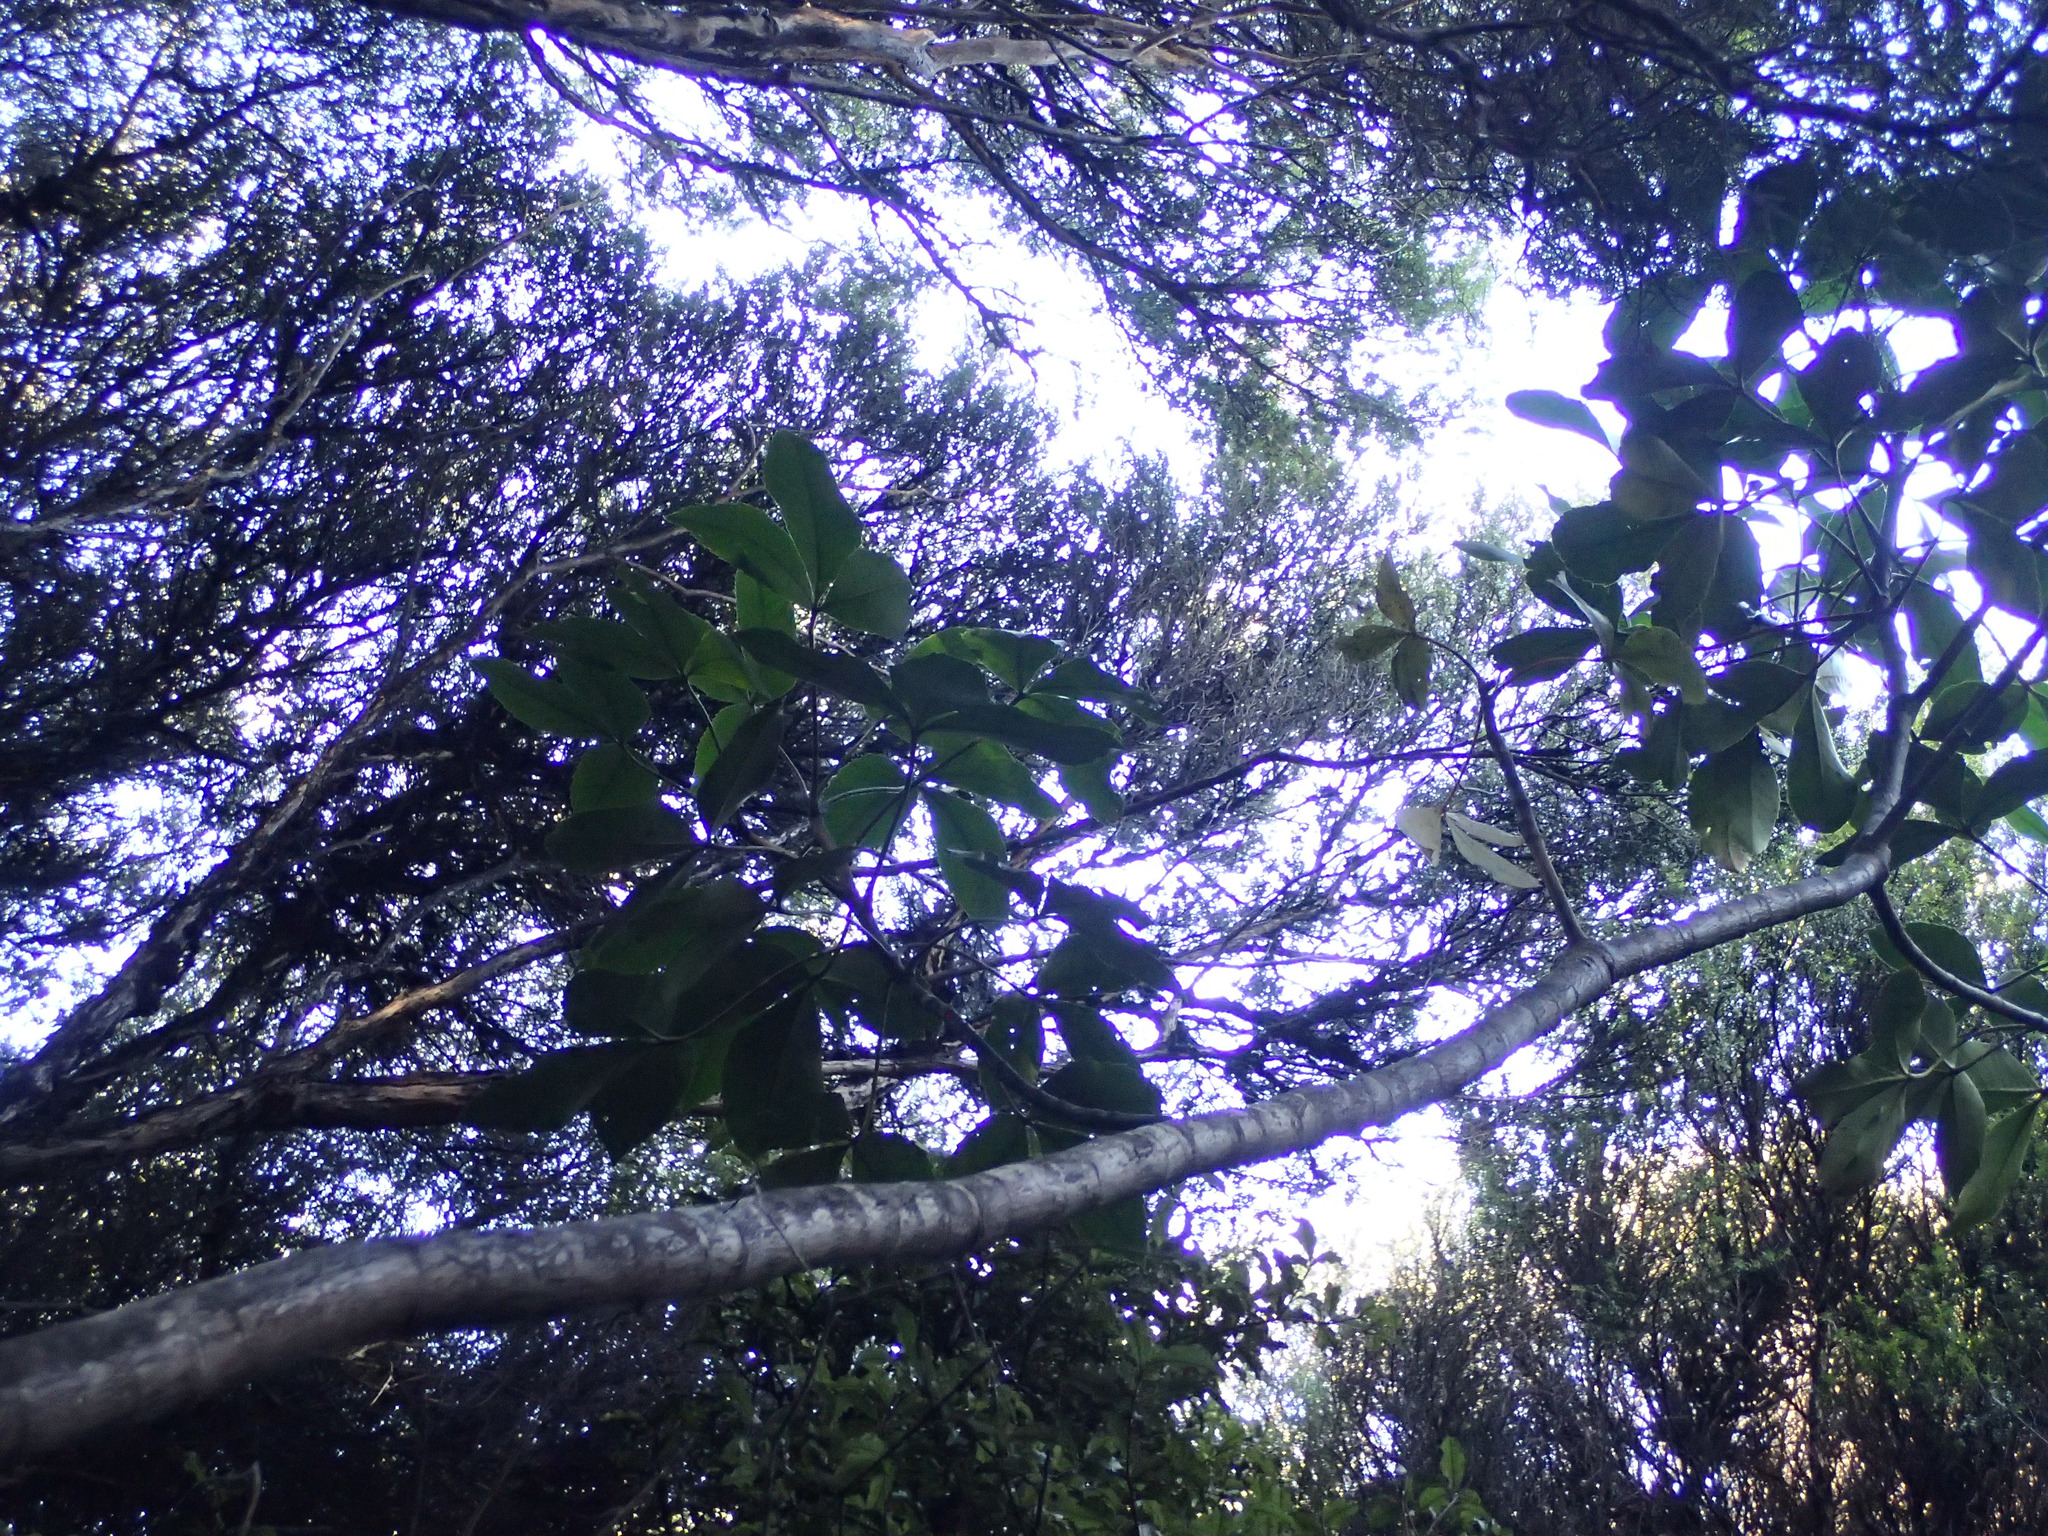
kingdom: Plantae
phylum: Tracheophyta
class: Magnoliopsida
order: Apiales
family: Araliaceae
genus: Neopanax
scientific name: Neopanax colensoi
